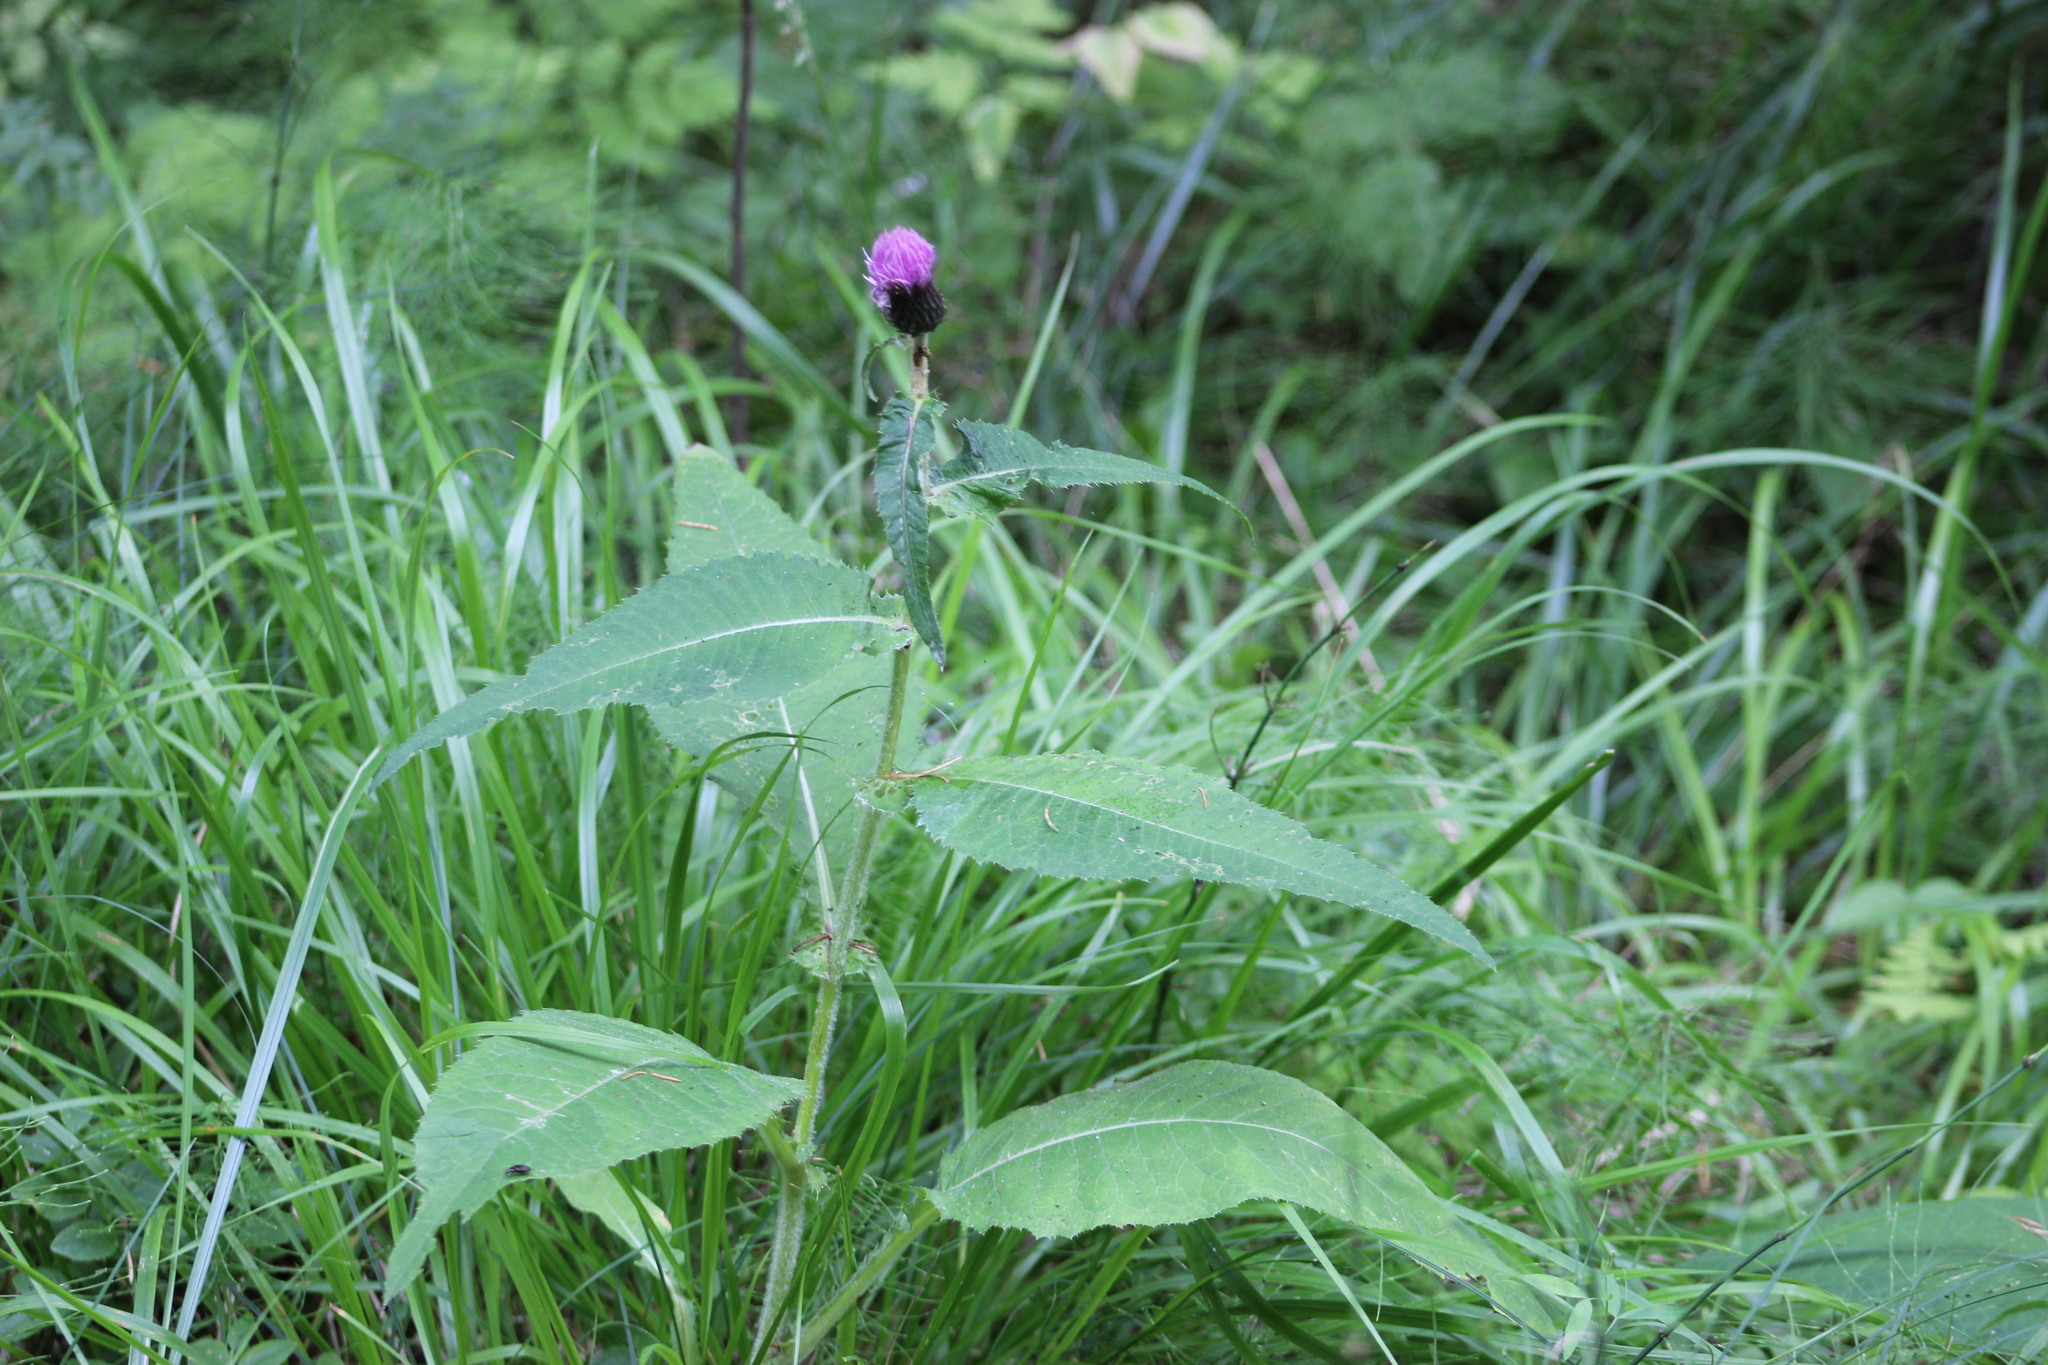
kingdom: Plantae
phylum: Tracheophyta
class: Magnoliopsida
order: Asterales
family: Asteraceae
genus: Cirsium
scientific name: Cirsium helenioides
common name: Melancholy thistle
